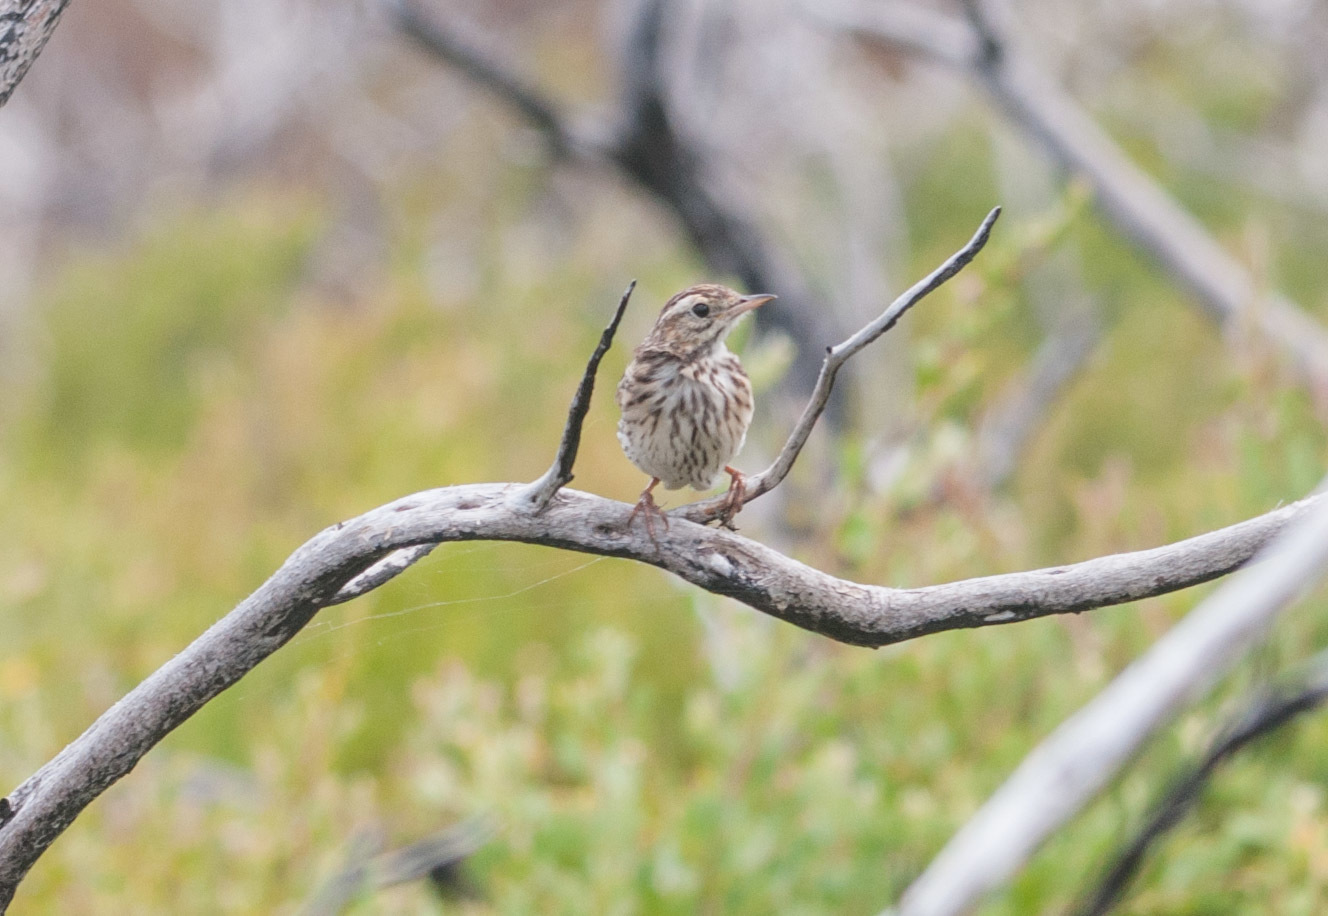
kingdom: Animalia
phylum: Chordata
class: Aves
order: Passeriformes
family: Motacillidae
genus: Anthus
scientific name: Anthus australis
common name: Australian pipit
